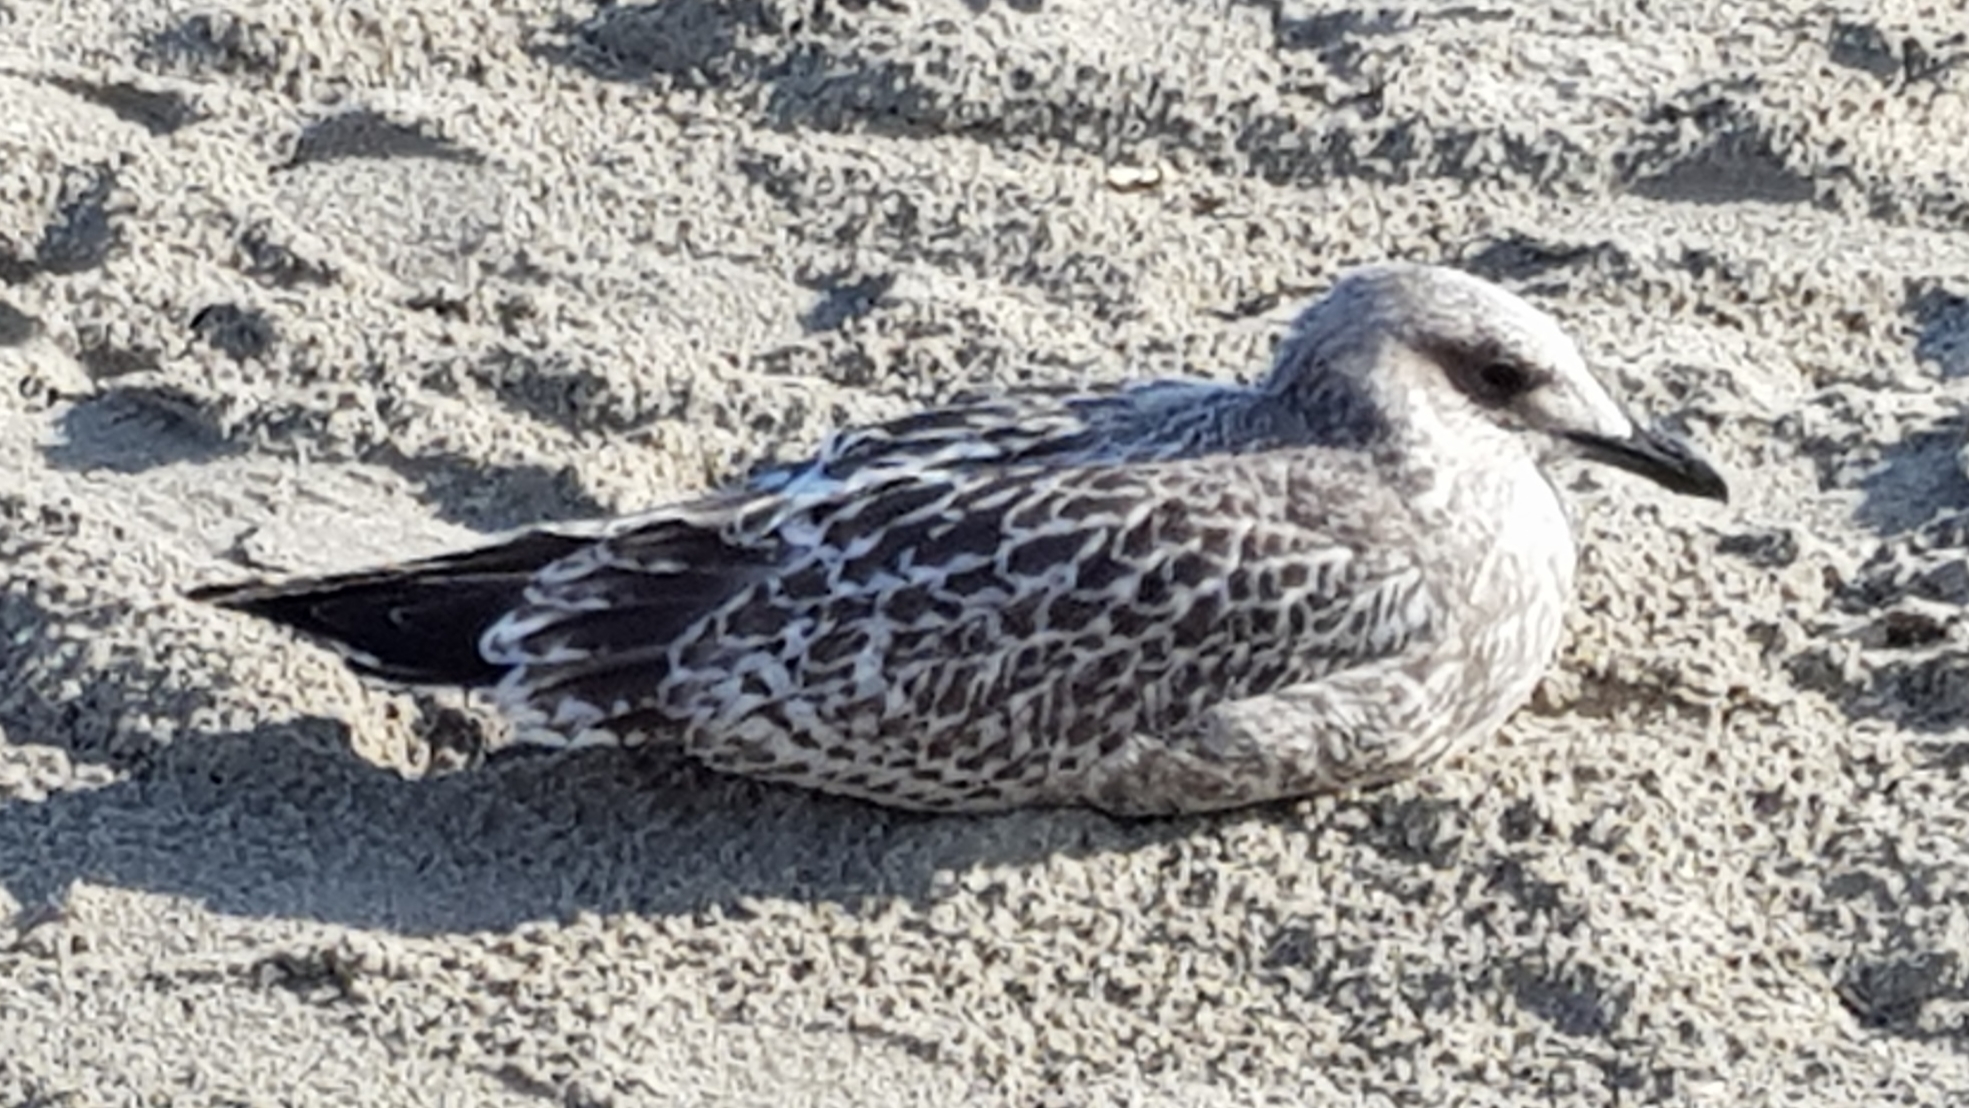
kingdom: Animalia
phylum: Chordata
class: Aves
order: Charadriiformes
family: Laridae
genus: Larus
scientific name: Larus argentatus
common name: Herring gull
